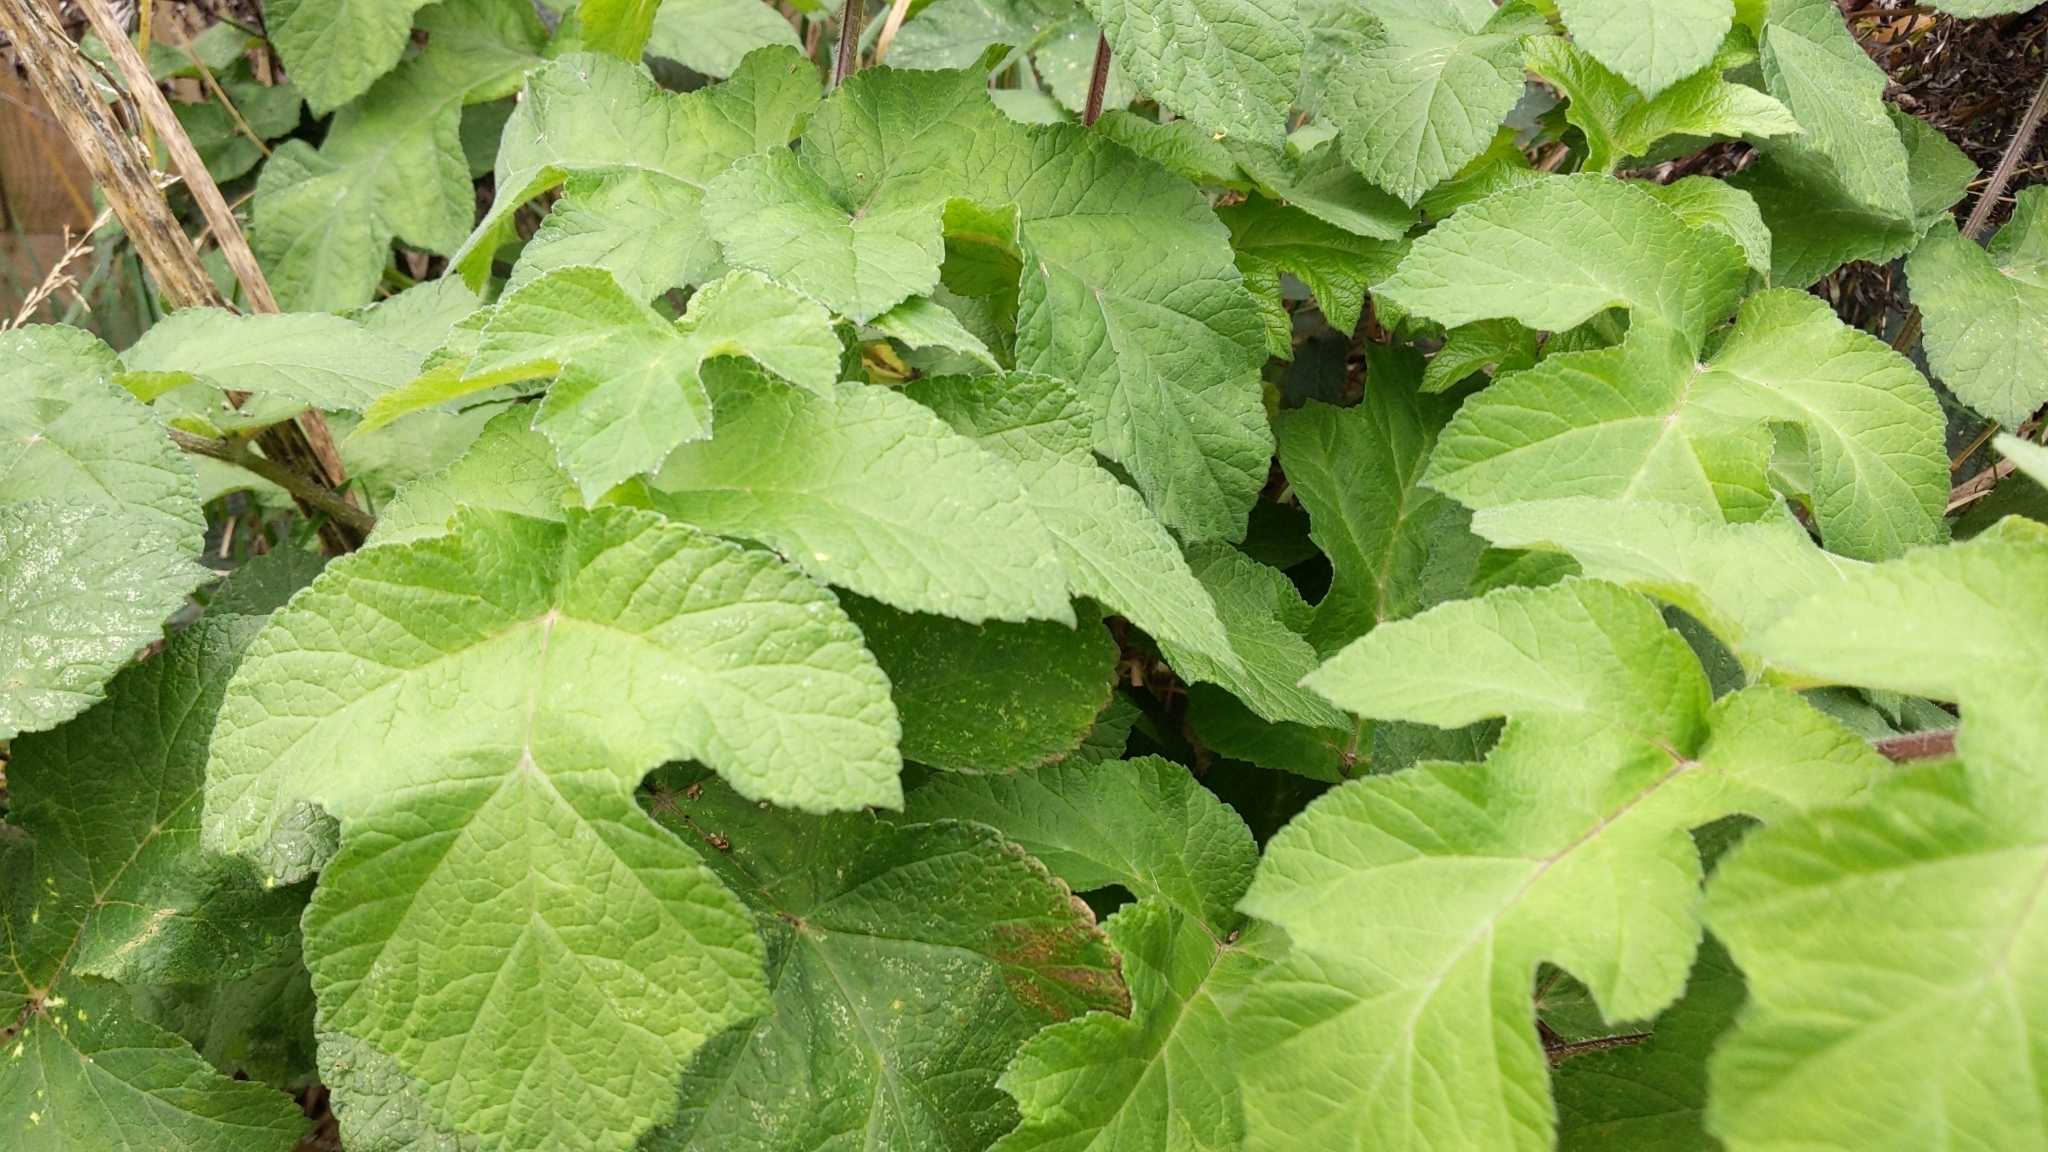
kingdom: Plantae
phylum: Tracheophyta
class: Magnoliopsida
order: Apiales
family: Apiaceae
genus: Heracleum
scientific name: Heracleum sphondylium
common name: Hogweed
